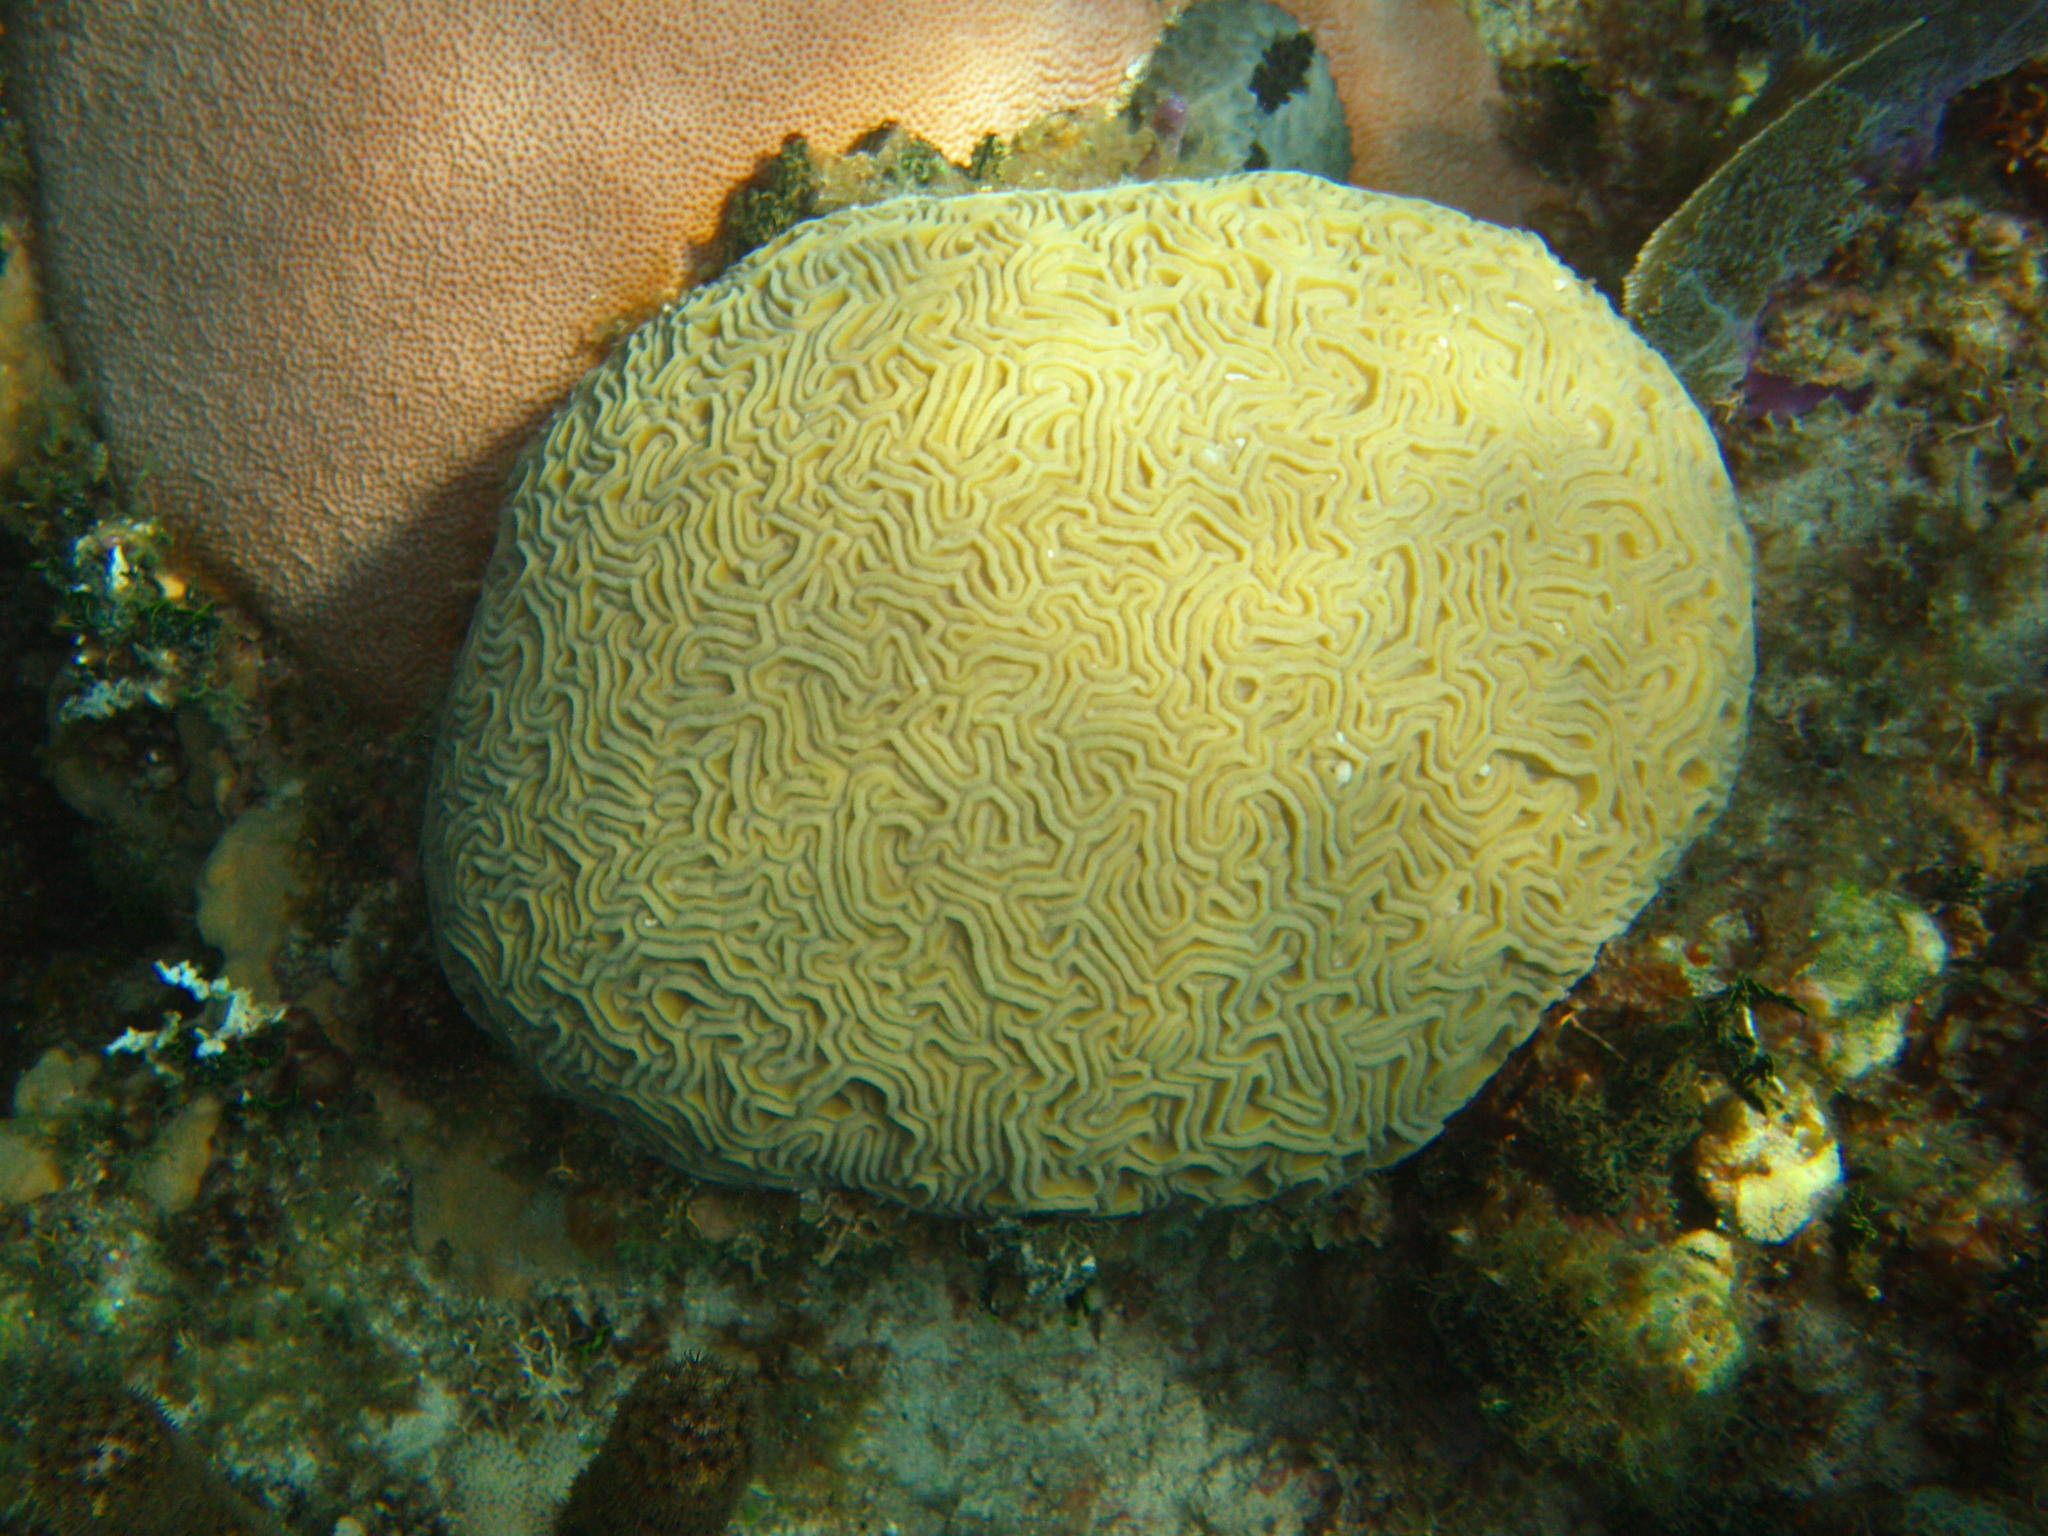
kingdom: Animalia
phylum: Cnidaria
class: Anthozoa
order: Scleractinia
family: Faviidae
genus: Diploria
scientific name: Diploria labyrinthiformis
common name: Grooved brain coral
